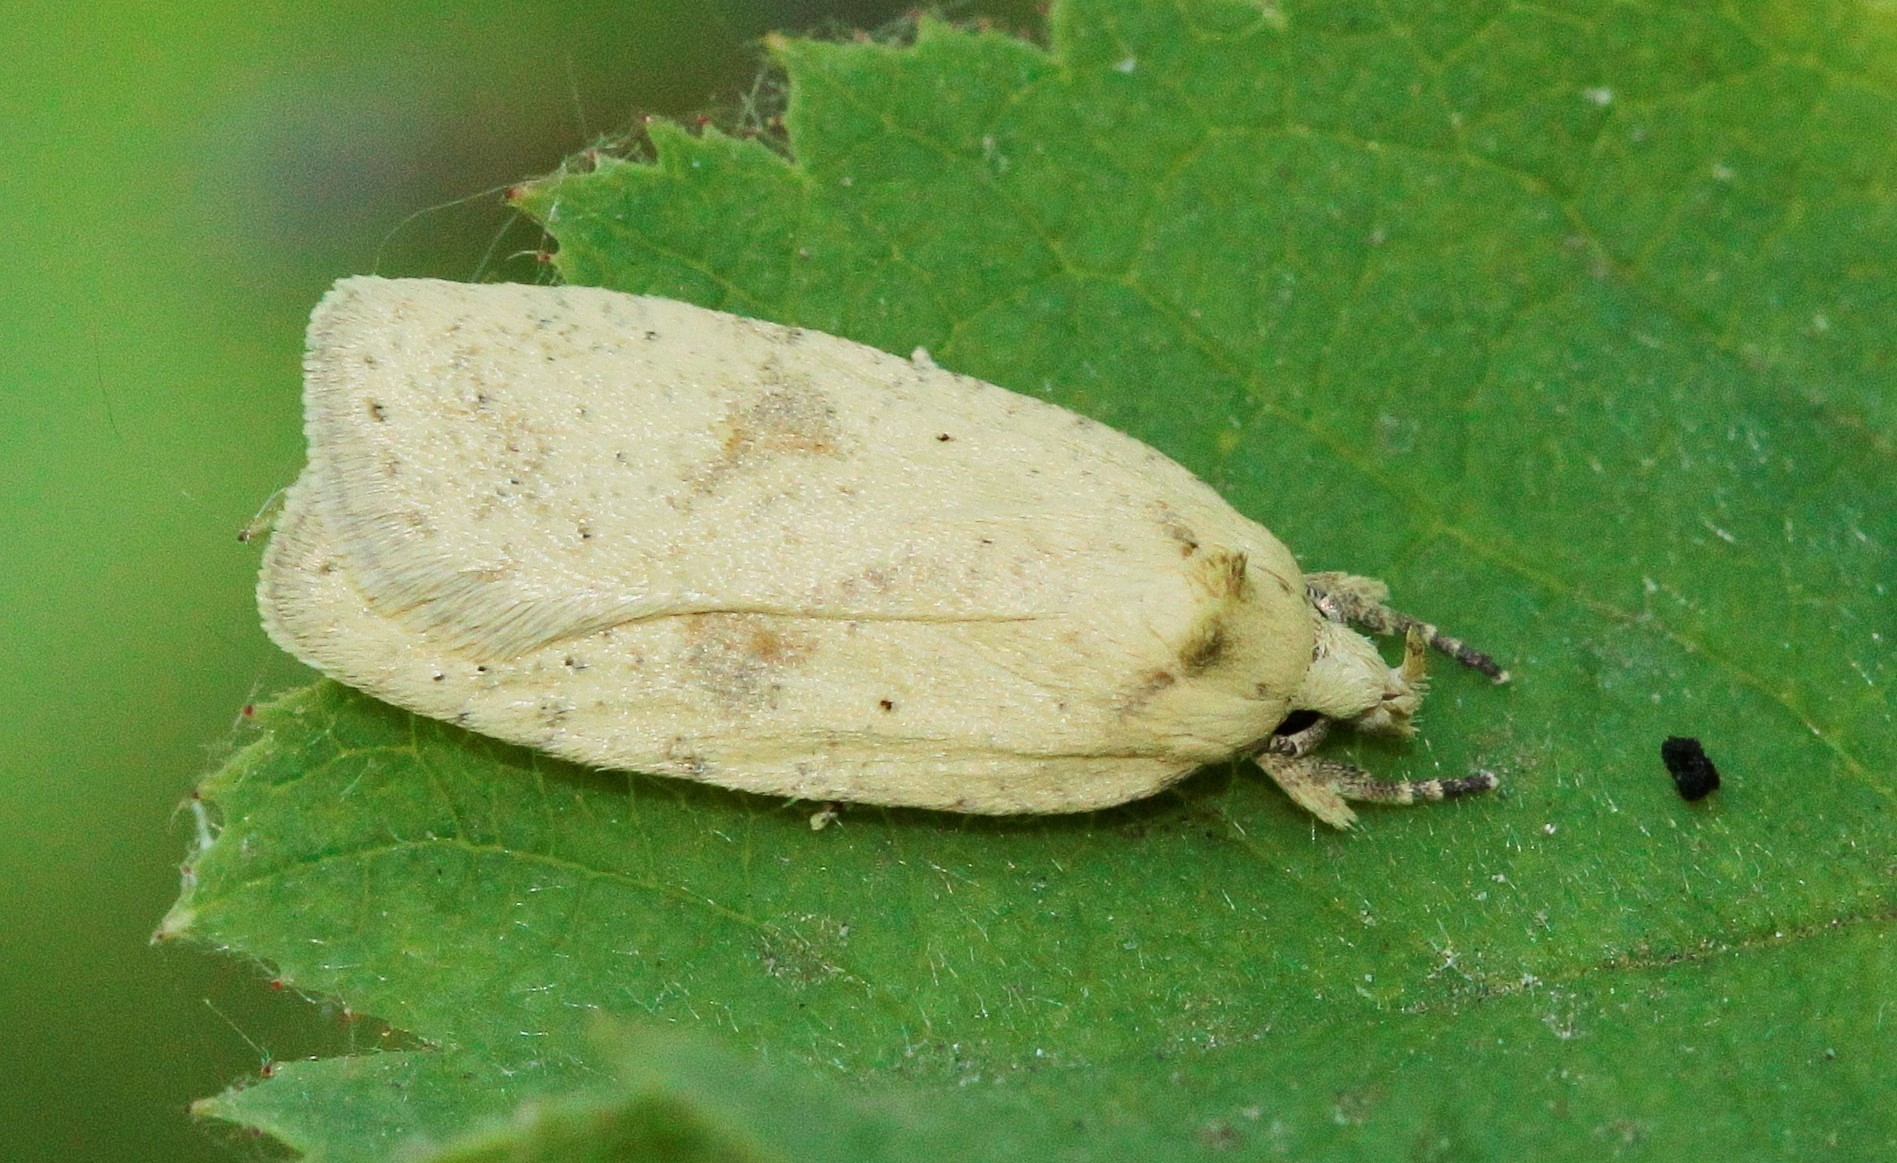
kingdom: Animalia
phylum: Arthropoda
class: Insecta
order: Lepidoptera
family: Depressariidae
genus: Agonopterix
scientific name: Agonopterix assimilella
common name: Dusted flat-body
